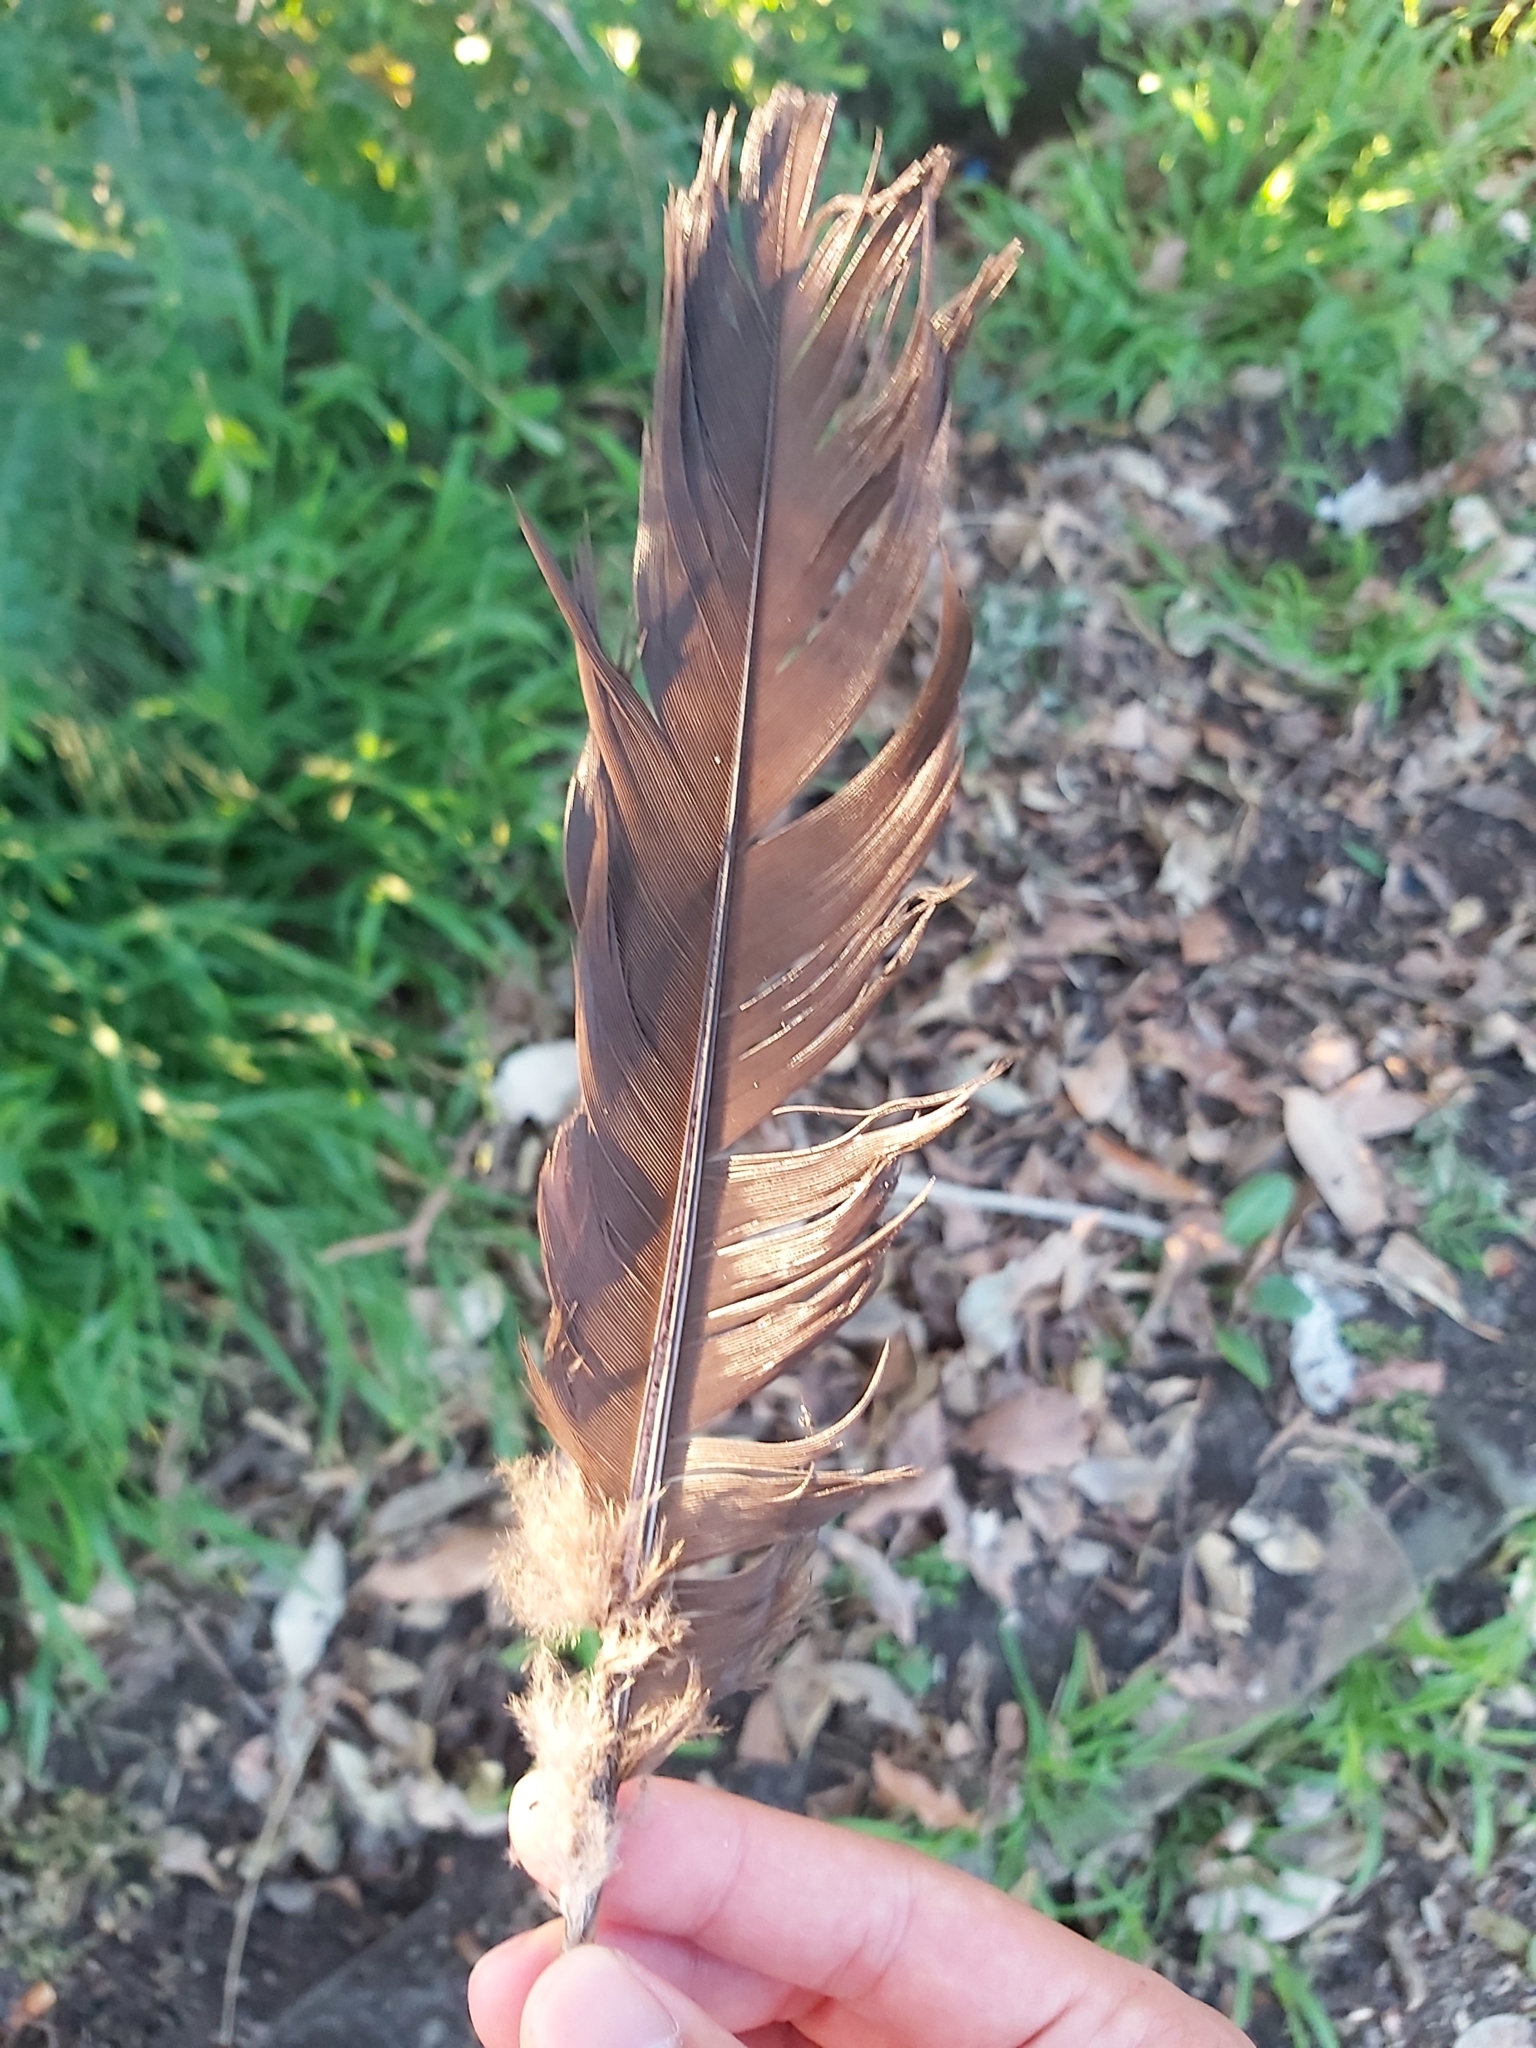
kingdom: Animalia
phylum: Chordata
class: Aves
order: Galliformes
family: Megapodiidae
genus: Alectura
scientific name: Alectura lathami
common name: Australian brushturkey
